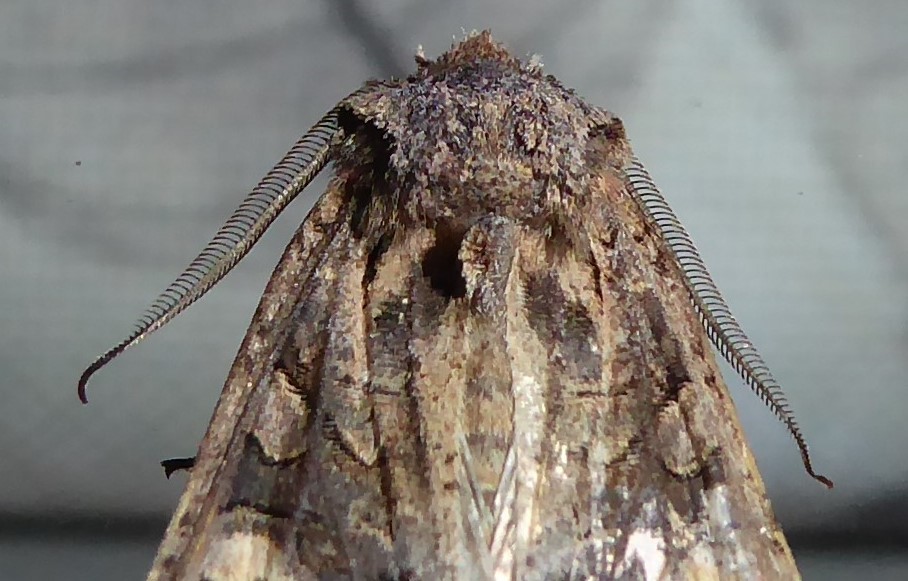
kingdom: Animalia
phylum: Arthropoda
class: Insecta
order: Lepidoptera
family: Noctuidae
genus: Ichneutica
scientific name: Ichneutica
